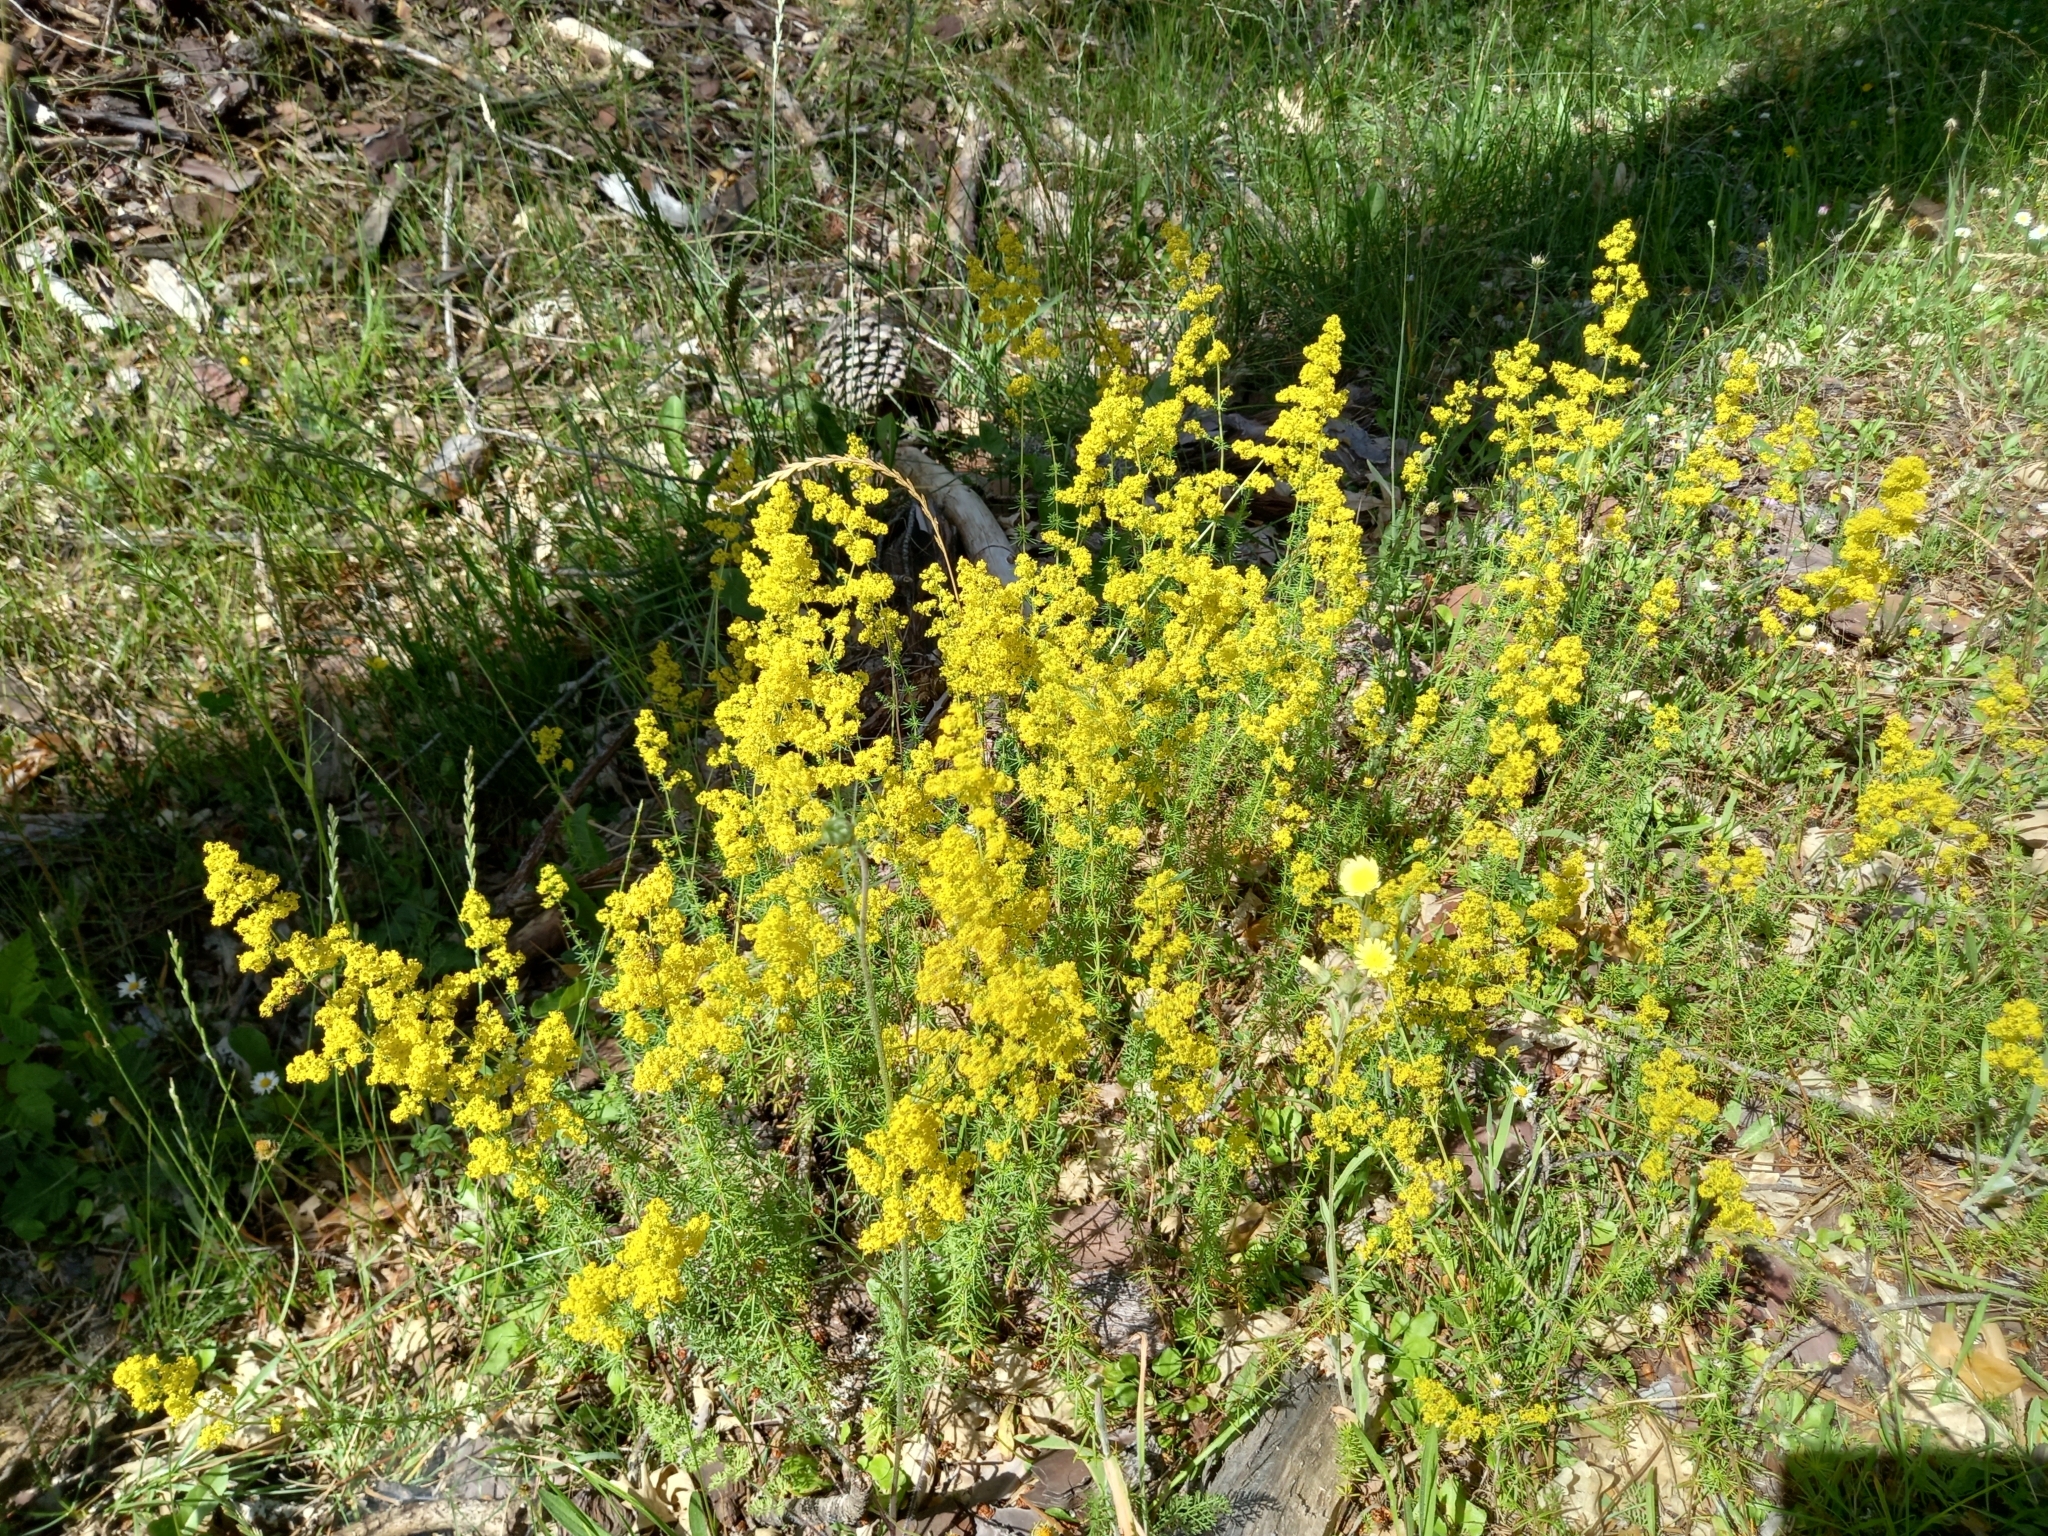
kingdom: Plantae
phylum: Tracheophyta
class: Magnoliopsida
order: Gentianales
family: Rubiaceae
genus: Galium
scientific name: Galium verum
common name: Lady's bedstraw
